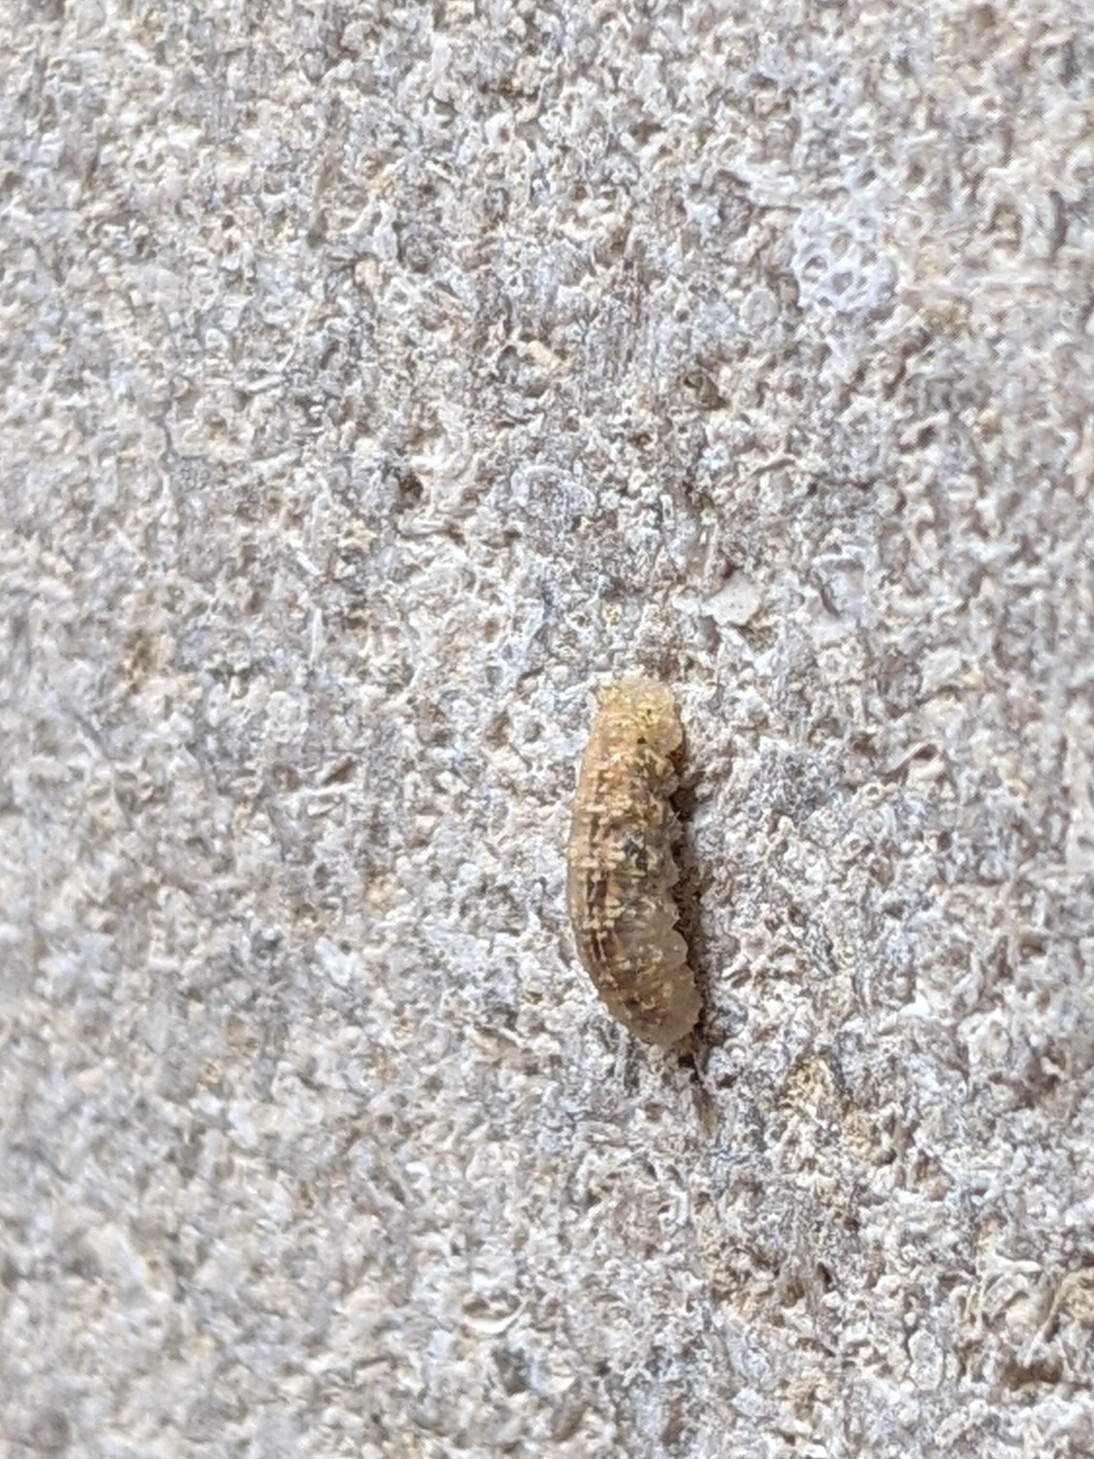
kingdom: Animalia
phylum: Arthropoda
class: Insecta
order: Diptera
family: Syrphidae
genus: Syrphus
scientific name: Syrphus
